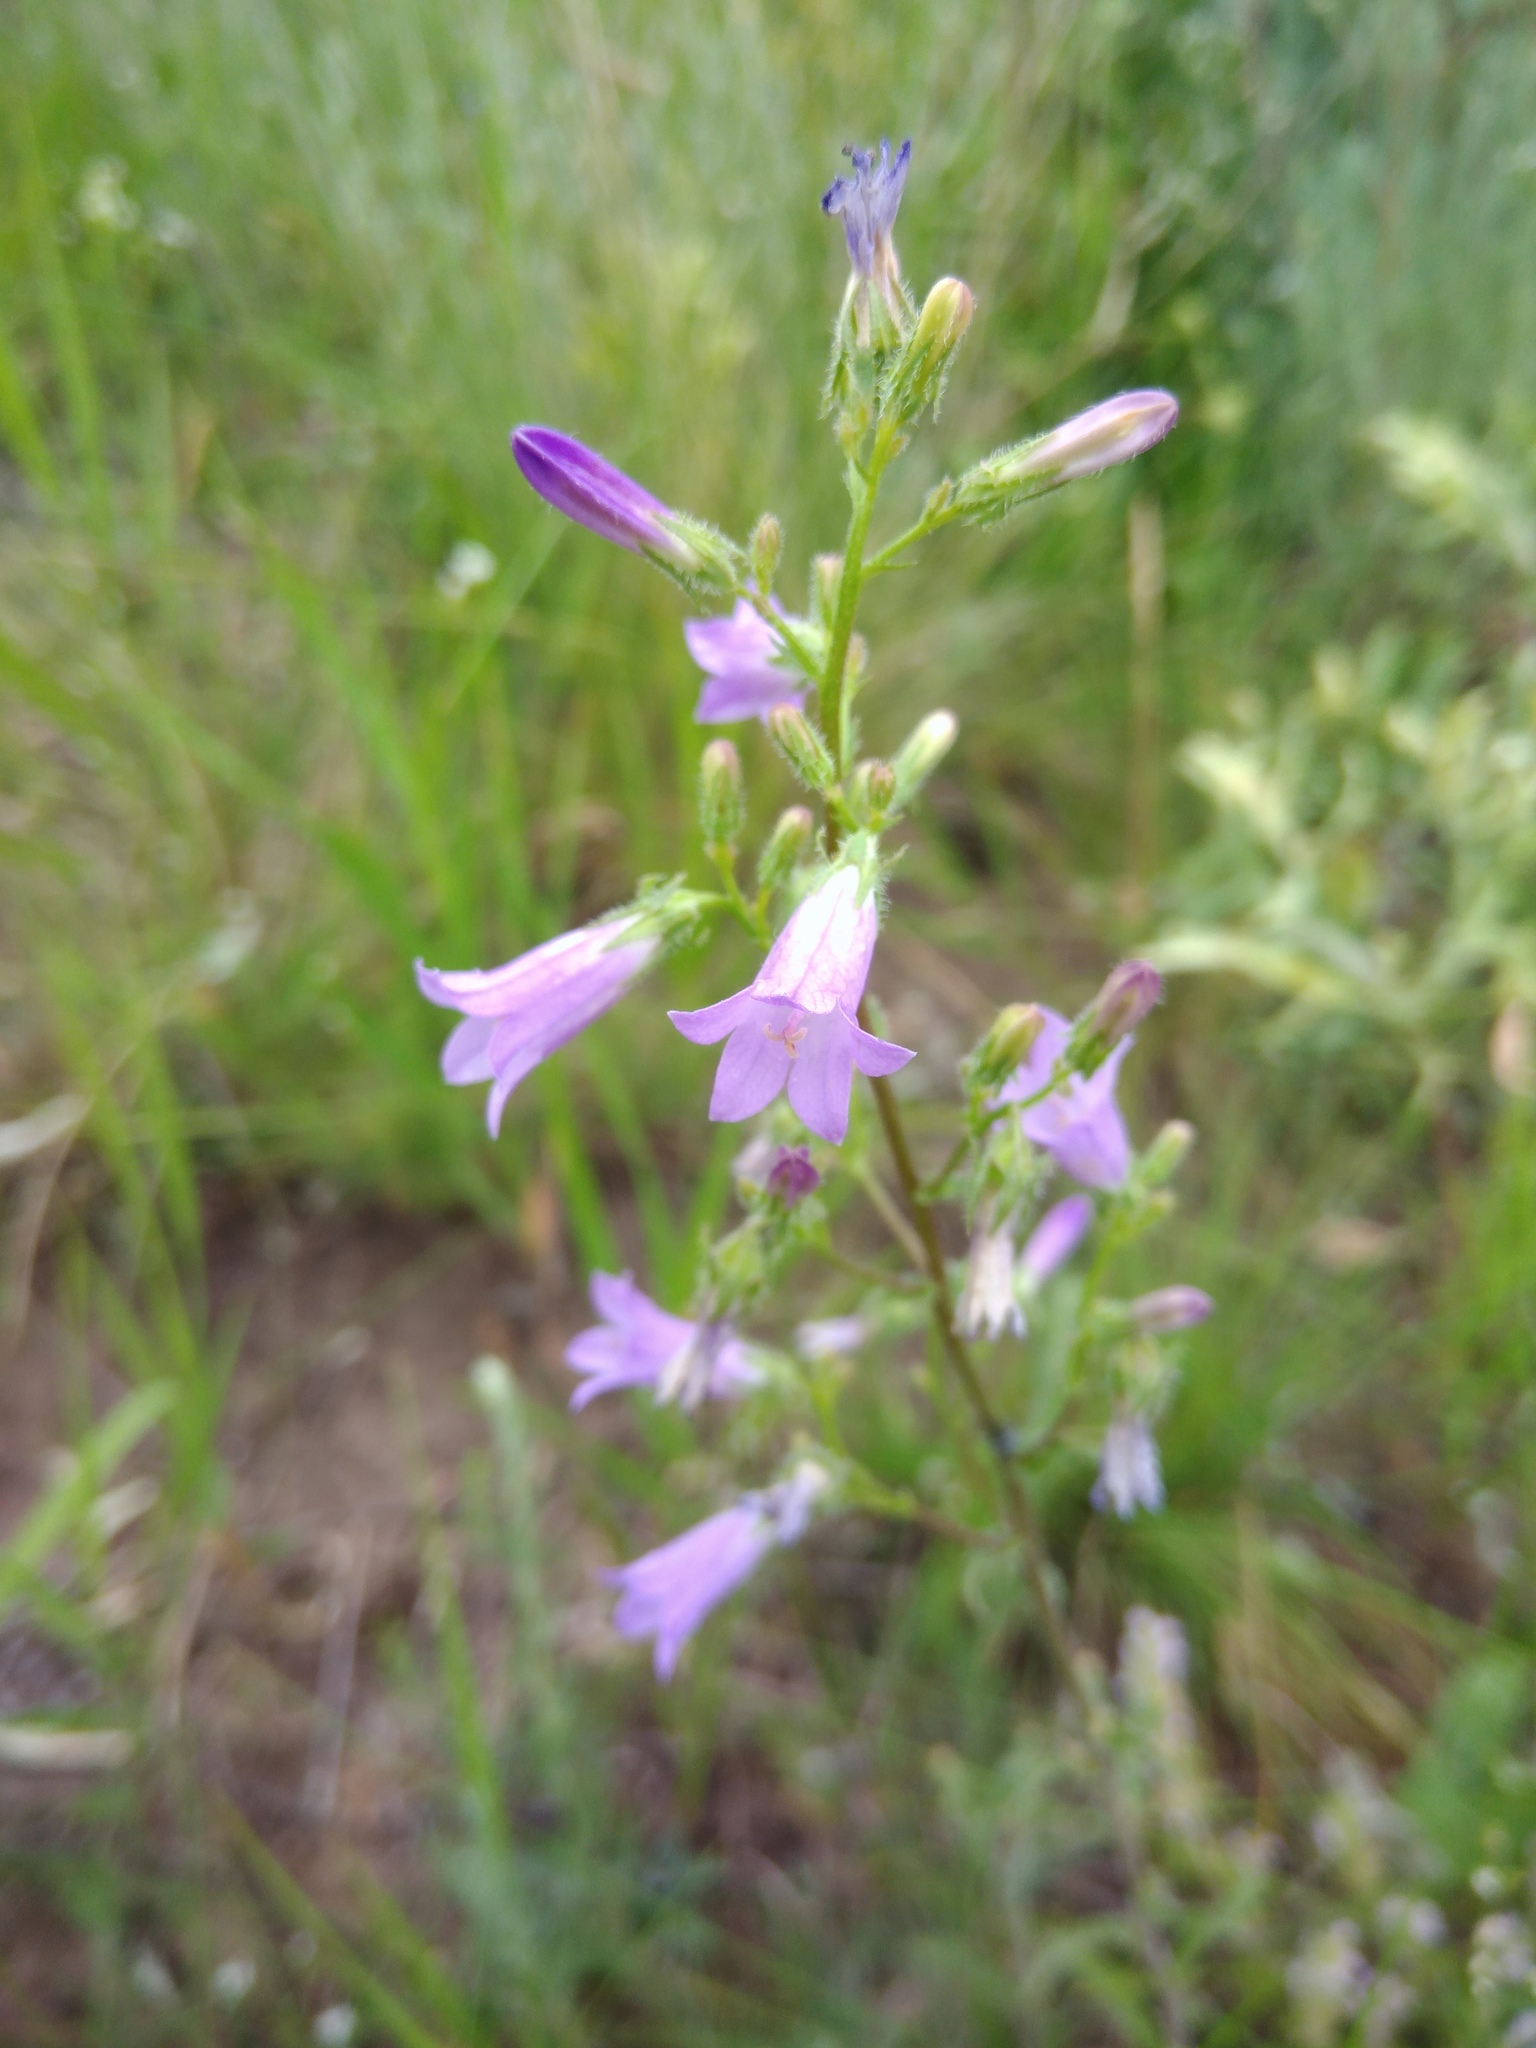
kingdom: Plantae
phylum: Tracheophyta
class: Magnoliopsida
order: Asterales
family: Campanulaceae
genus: Campanula
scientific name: Campanula sibirica
